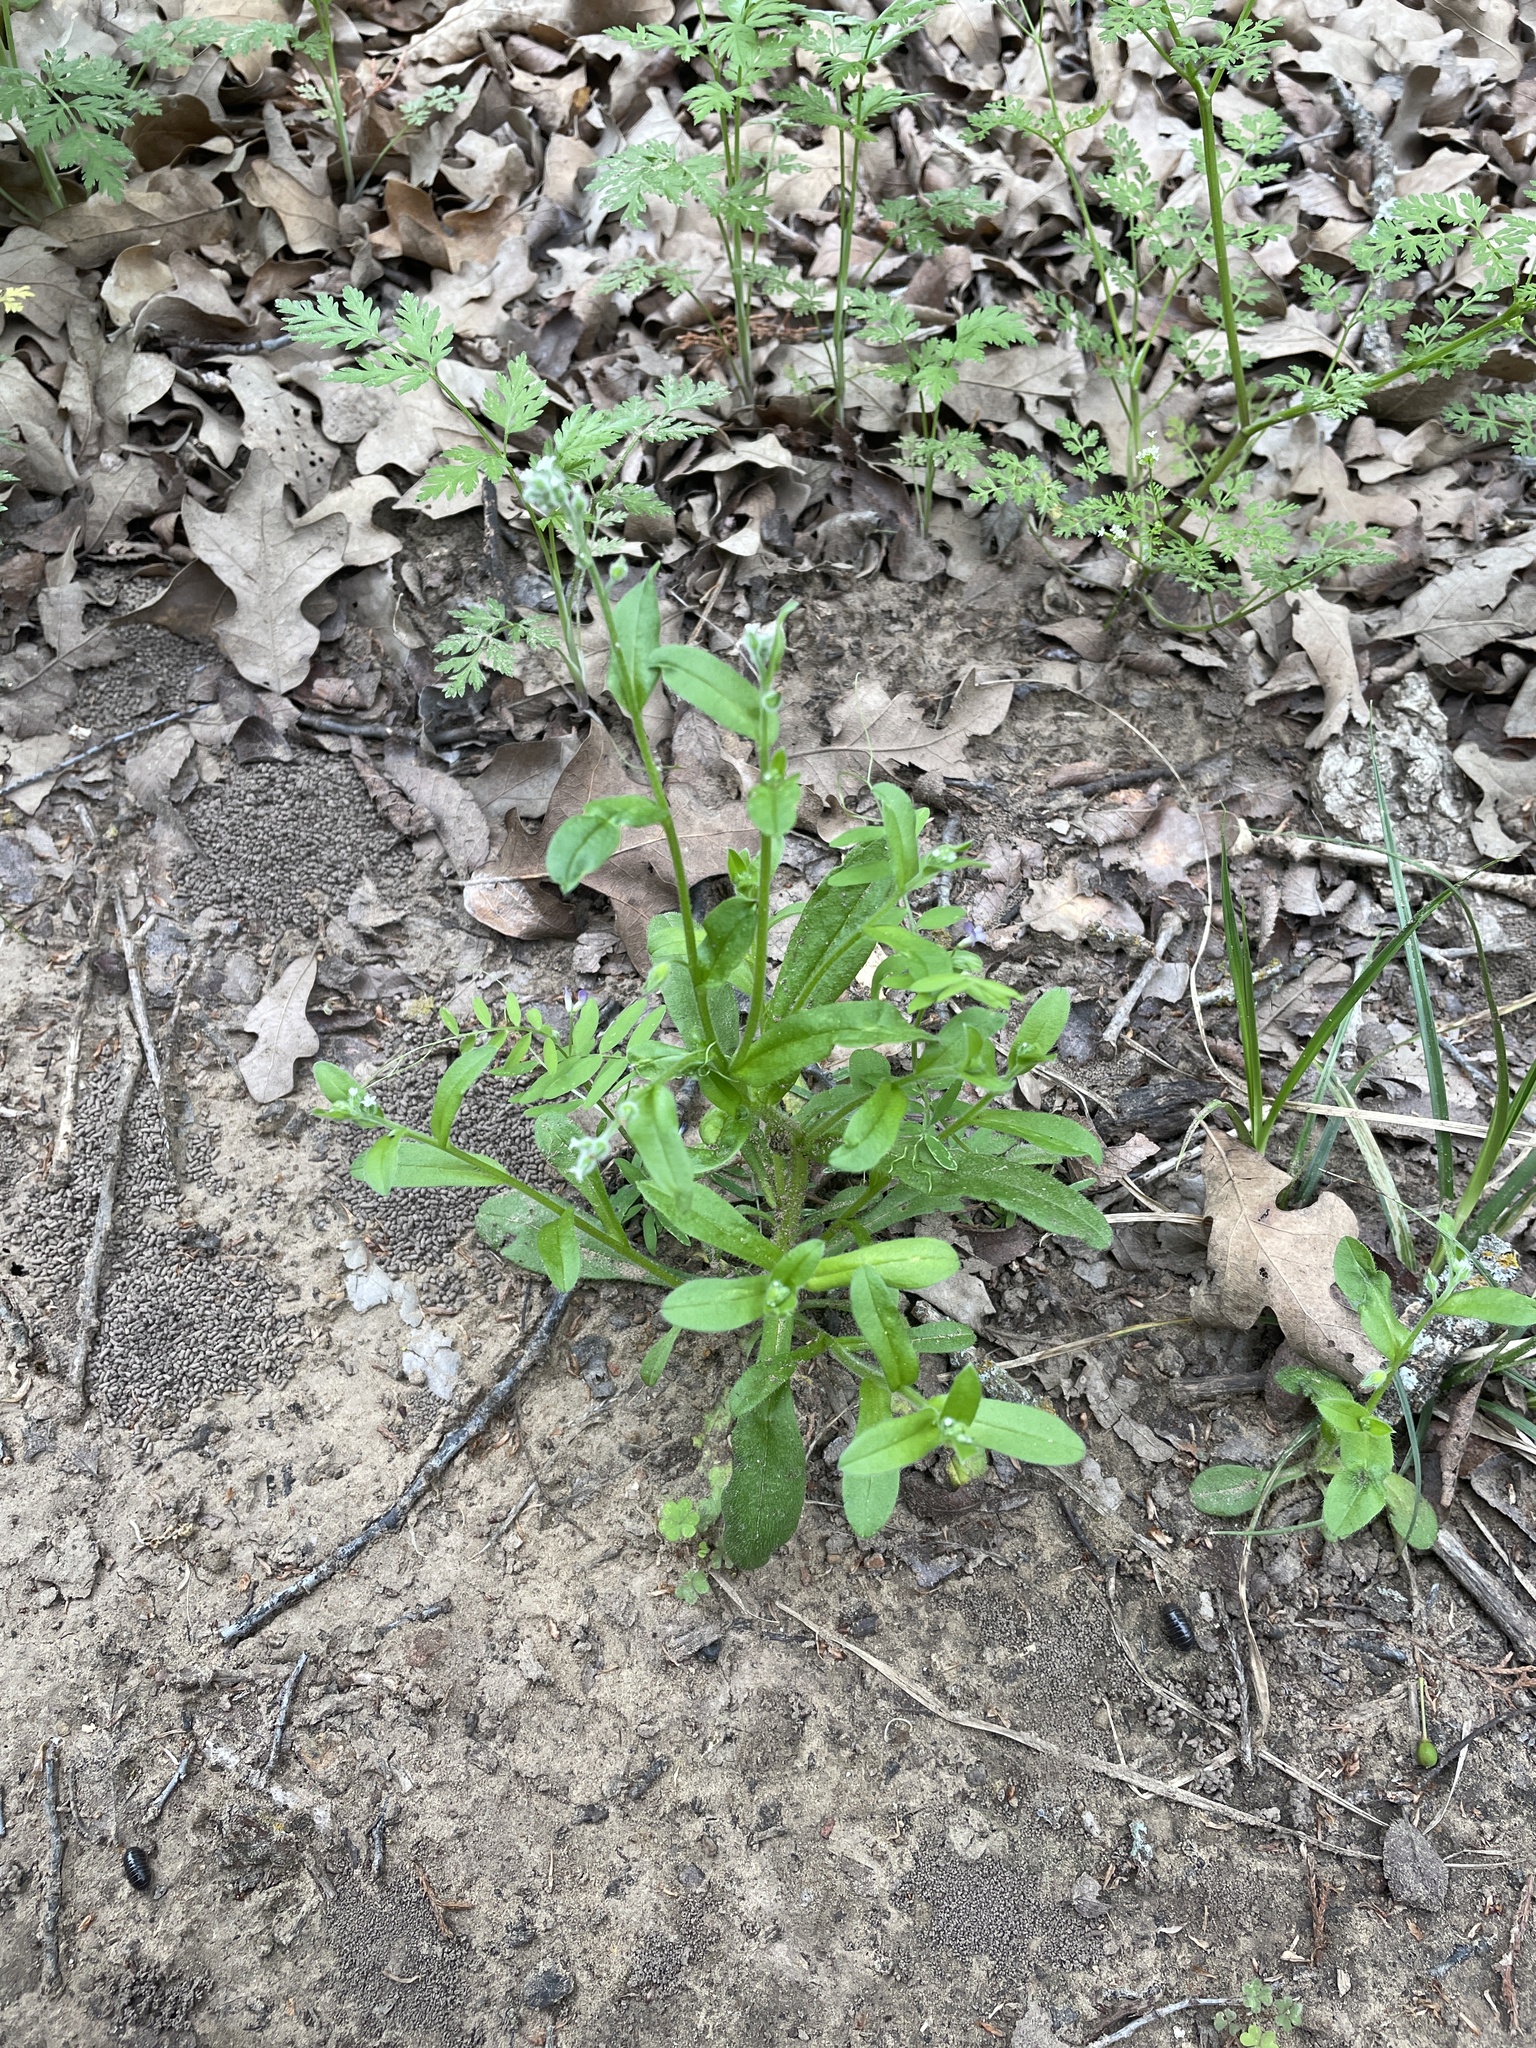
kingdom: Plantae
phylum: Tracheophyta
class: Magnoliopsida
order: Boraginales
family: Boraginaceae
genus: Myosotis
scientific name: Myosotis macrosperma
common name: Large-seed forget-me-not
